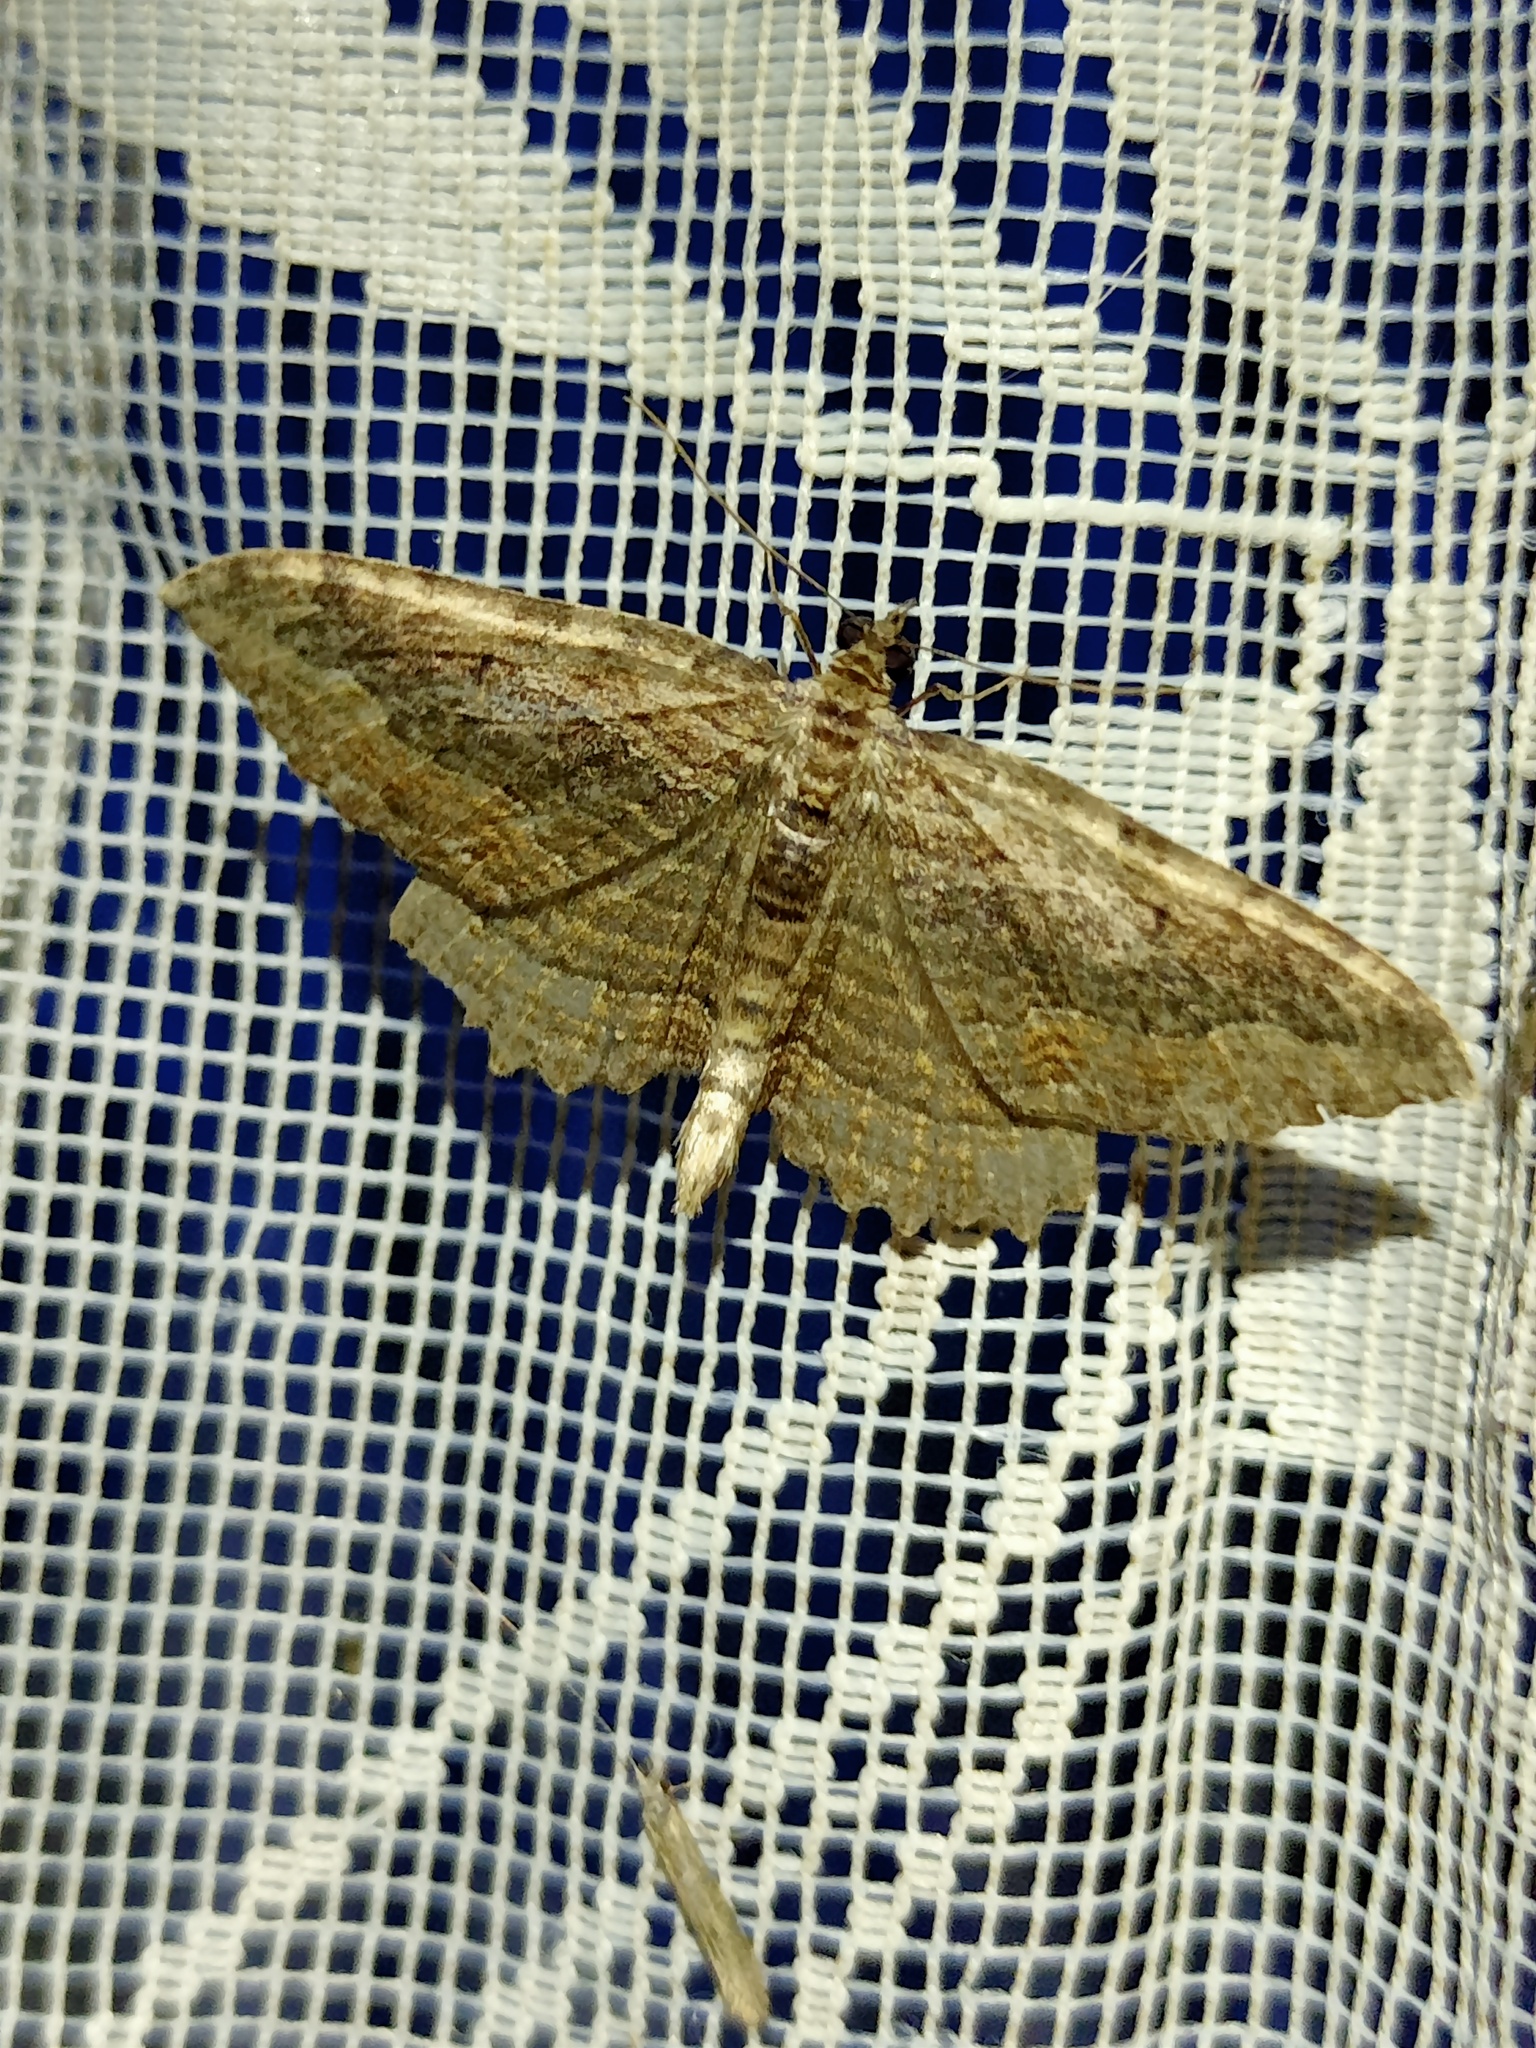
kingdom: Animalia
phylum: Arthropoda
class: Insecta
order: Lepidoptera
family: Geometridae
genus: Philereme
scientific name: Philereme transversata
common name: Dark umber
